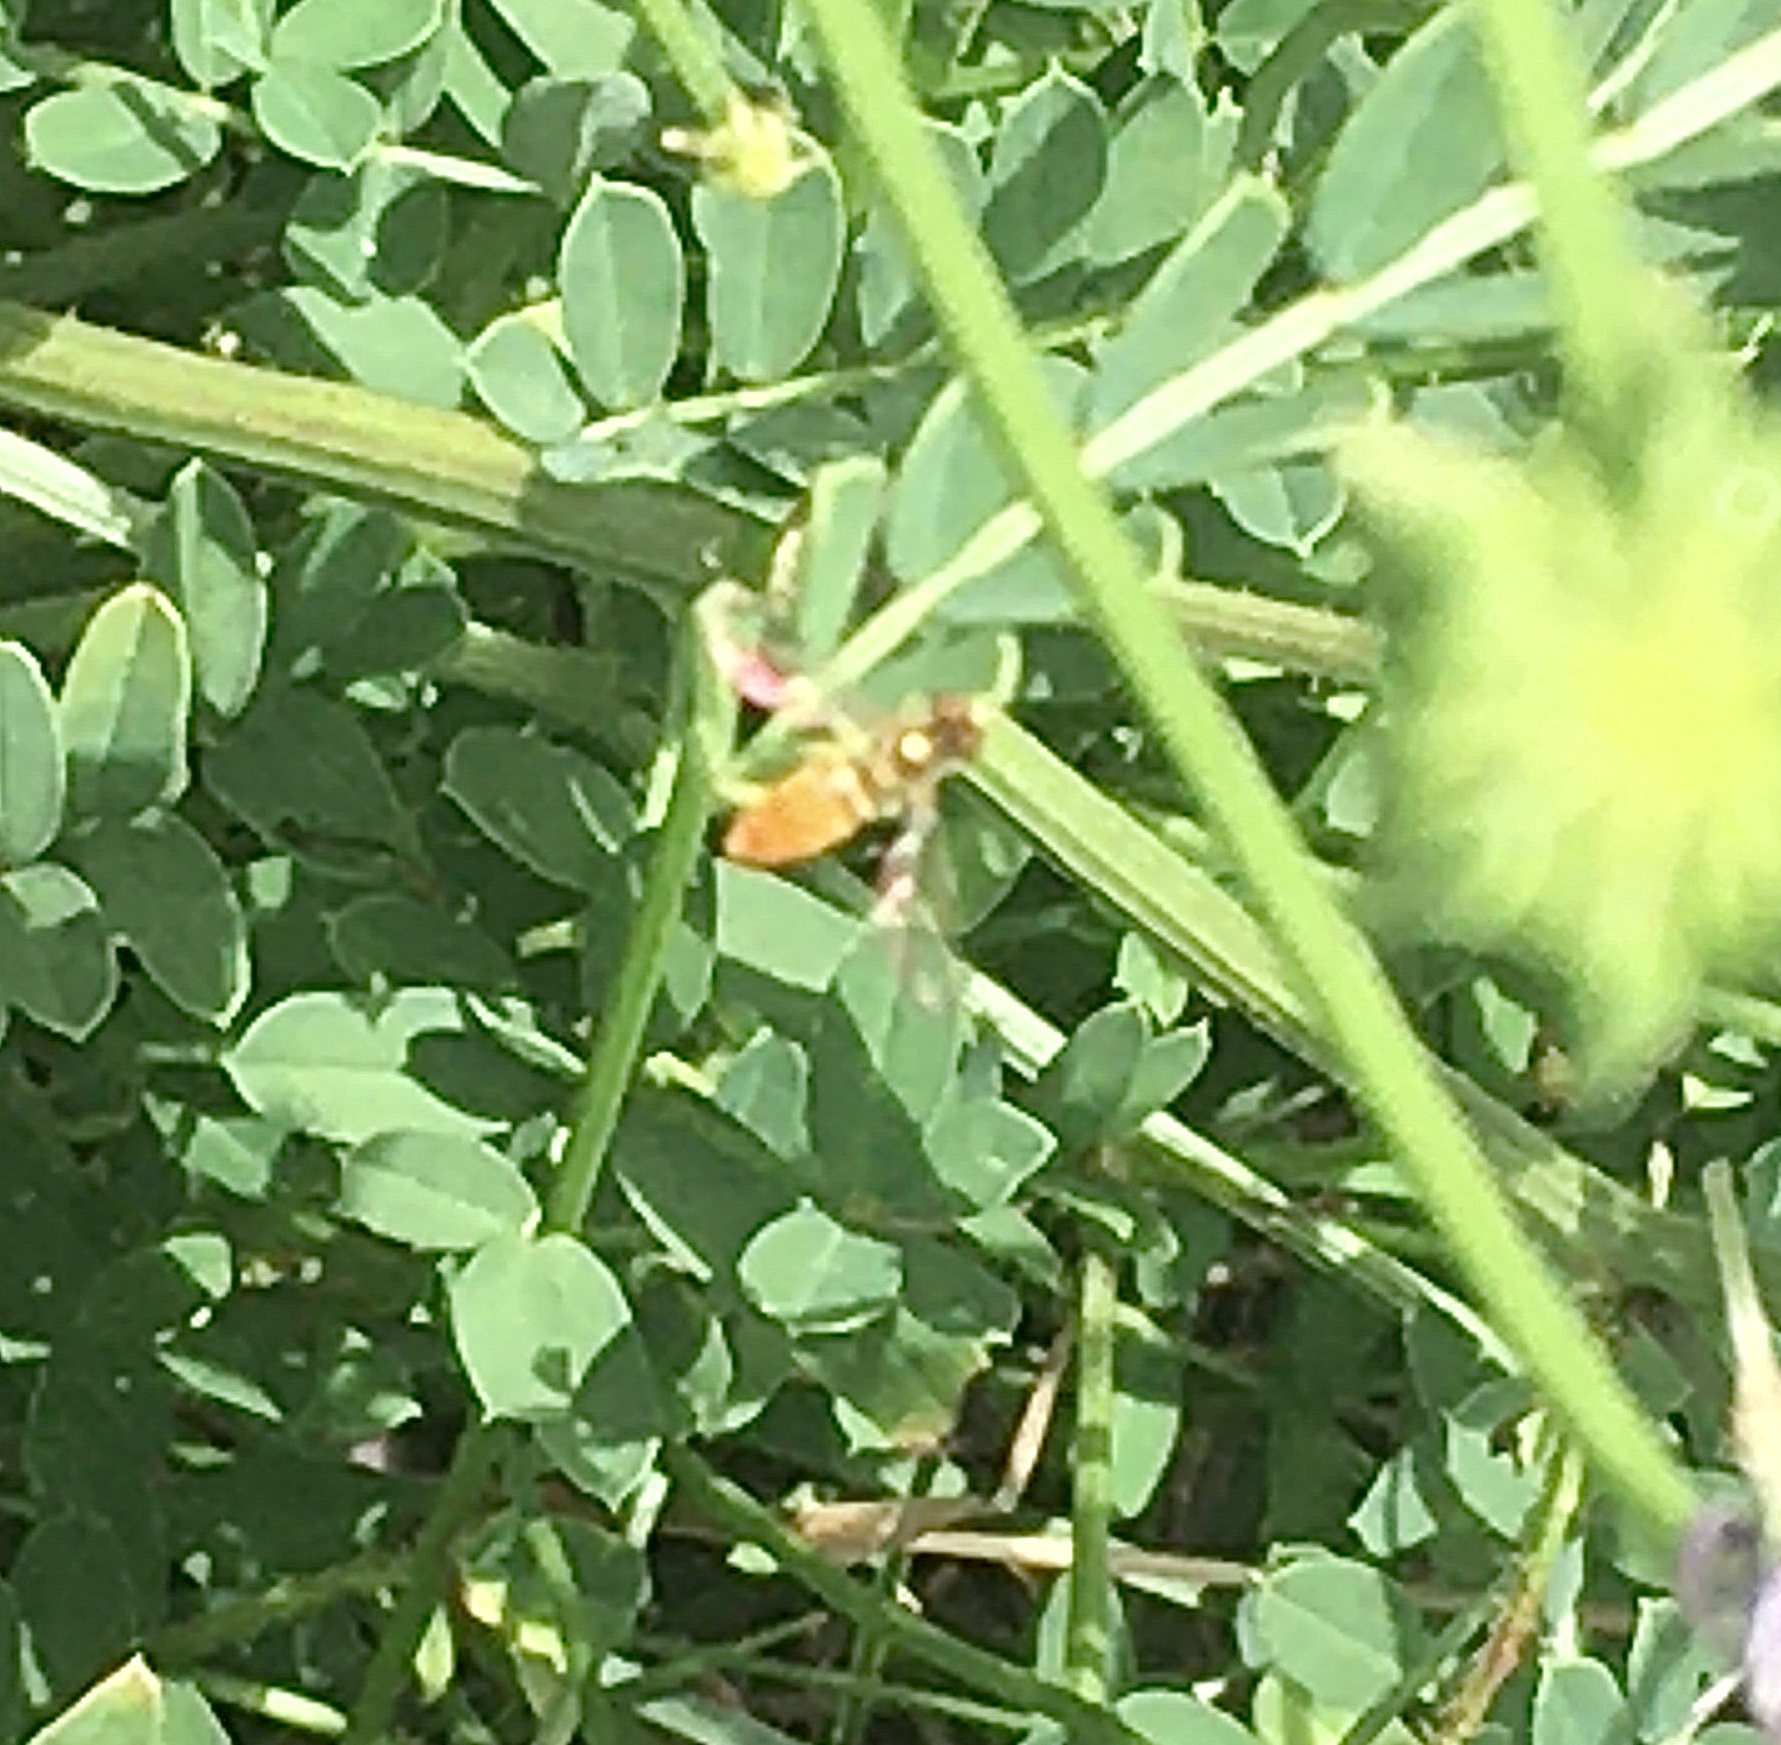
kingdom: Animalia
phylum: Arthropoda
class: Insecta
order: Diptera
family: Syrphidae
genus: Toxomerus
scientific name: Toxomerus marginatus
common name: Syrphid fly
